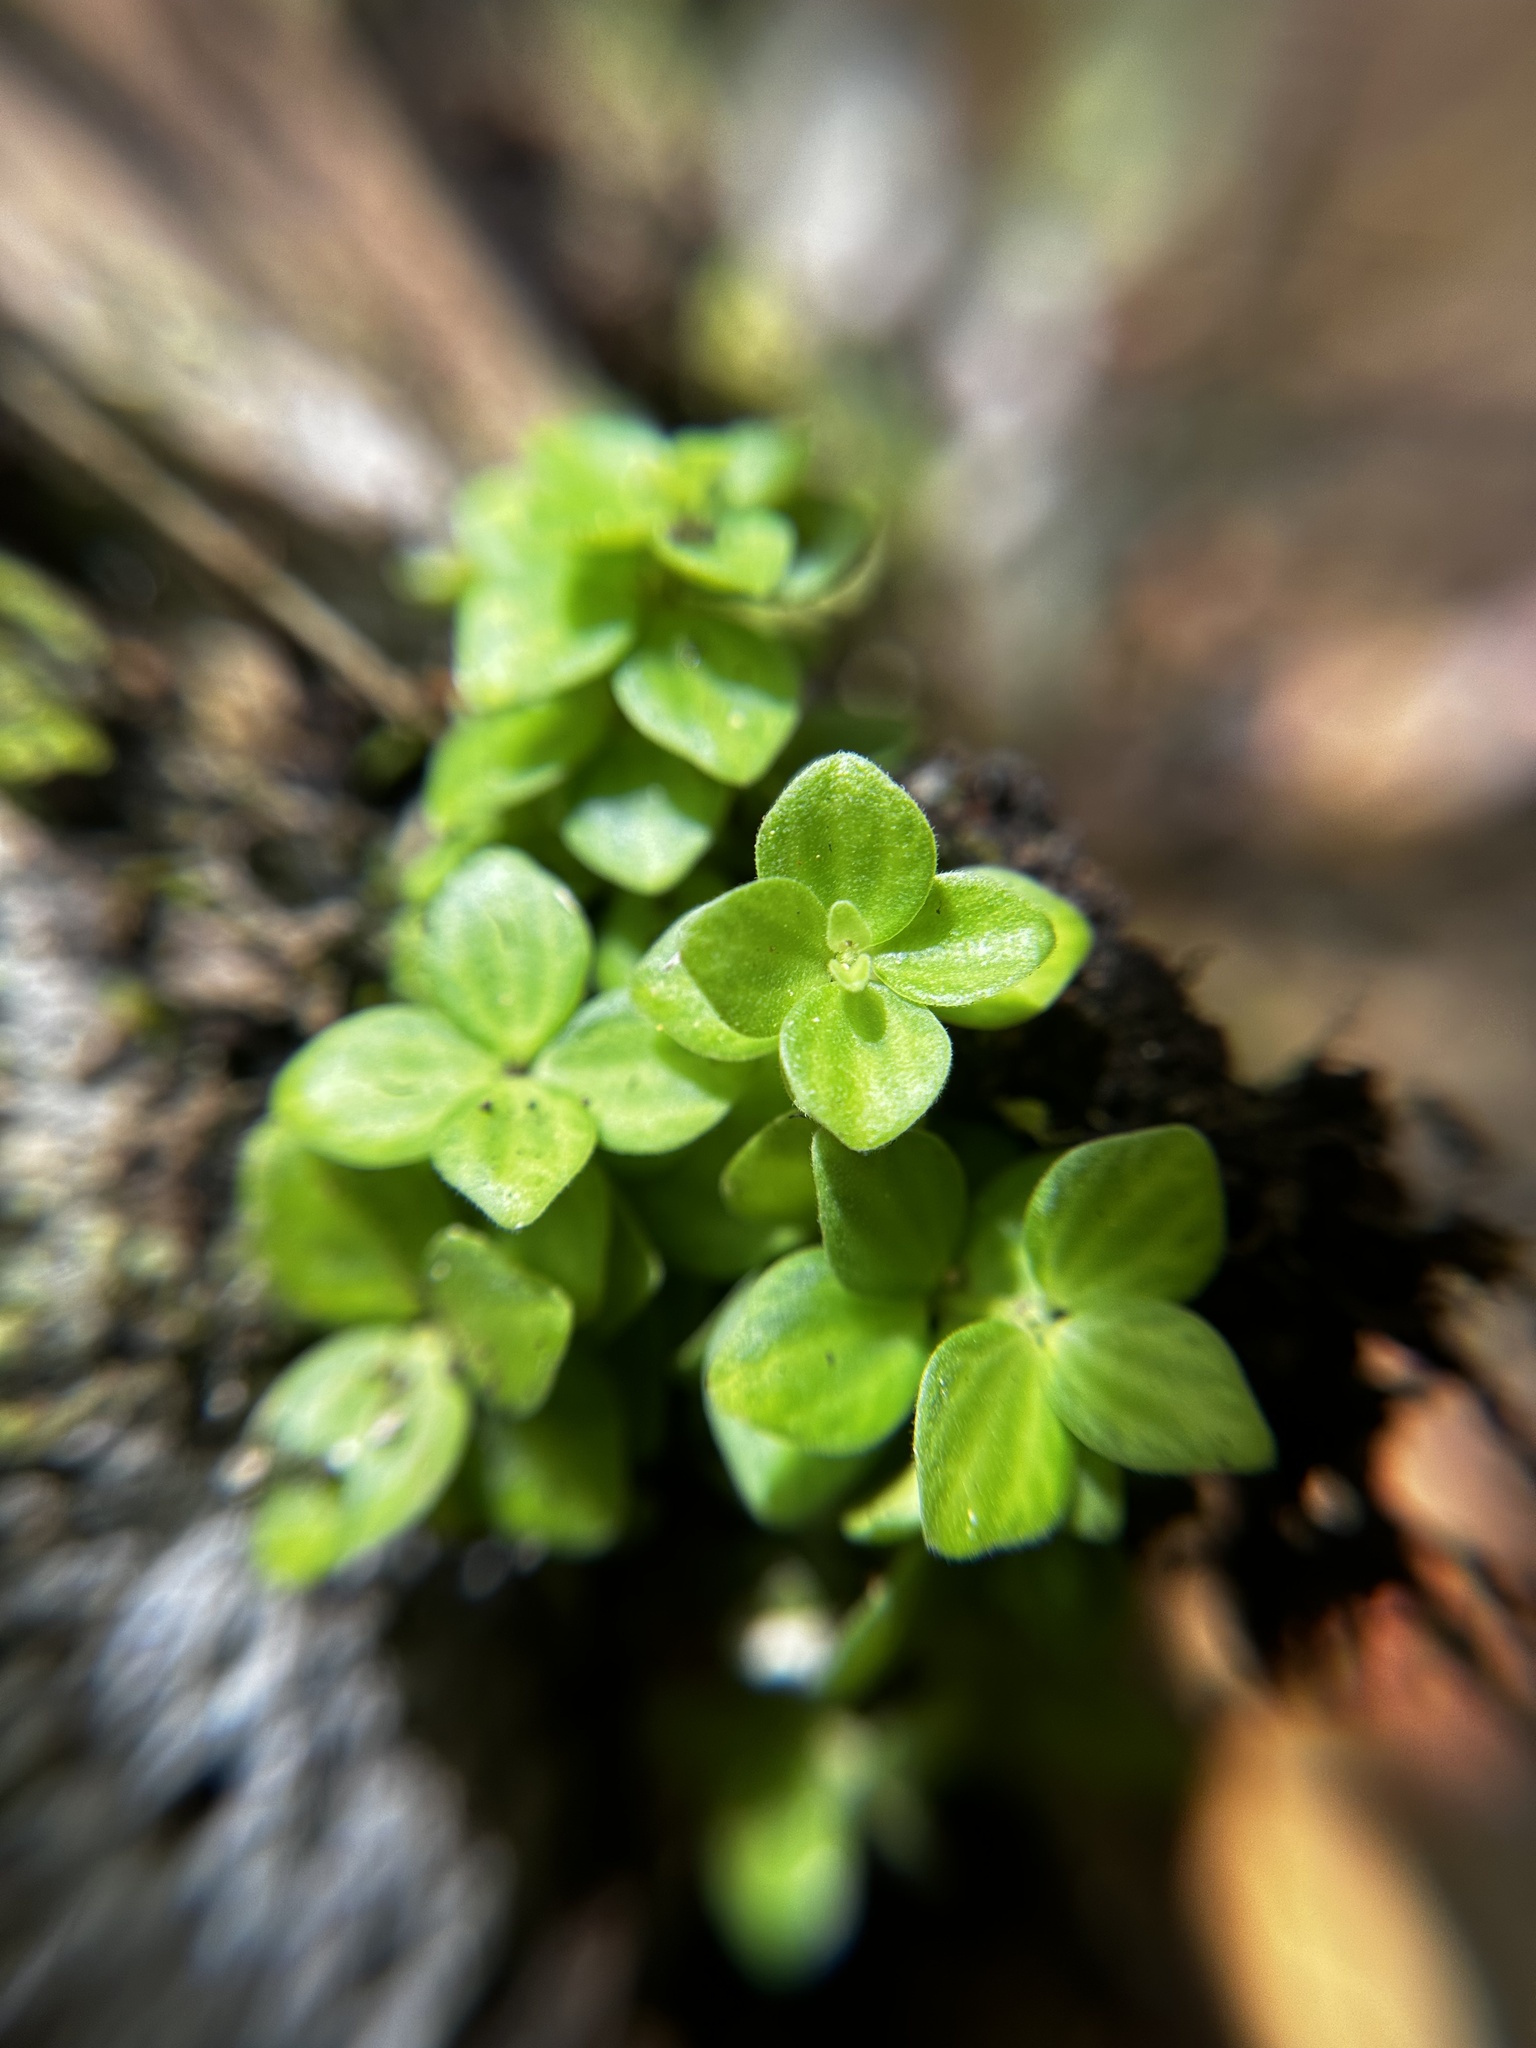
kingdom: Plantae
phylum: Tracheophyta
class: Magnoliopsida
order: Piperales
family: Piperaceae
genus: Peperomia
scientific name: Peperomia tetraphylla
